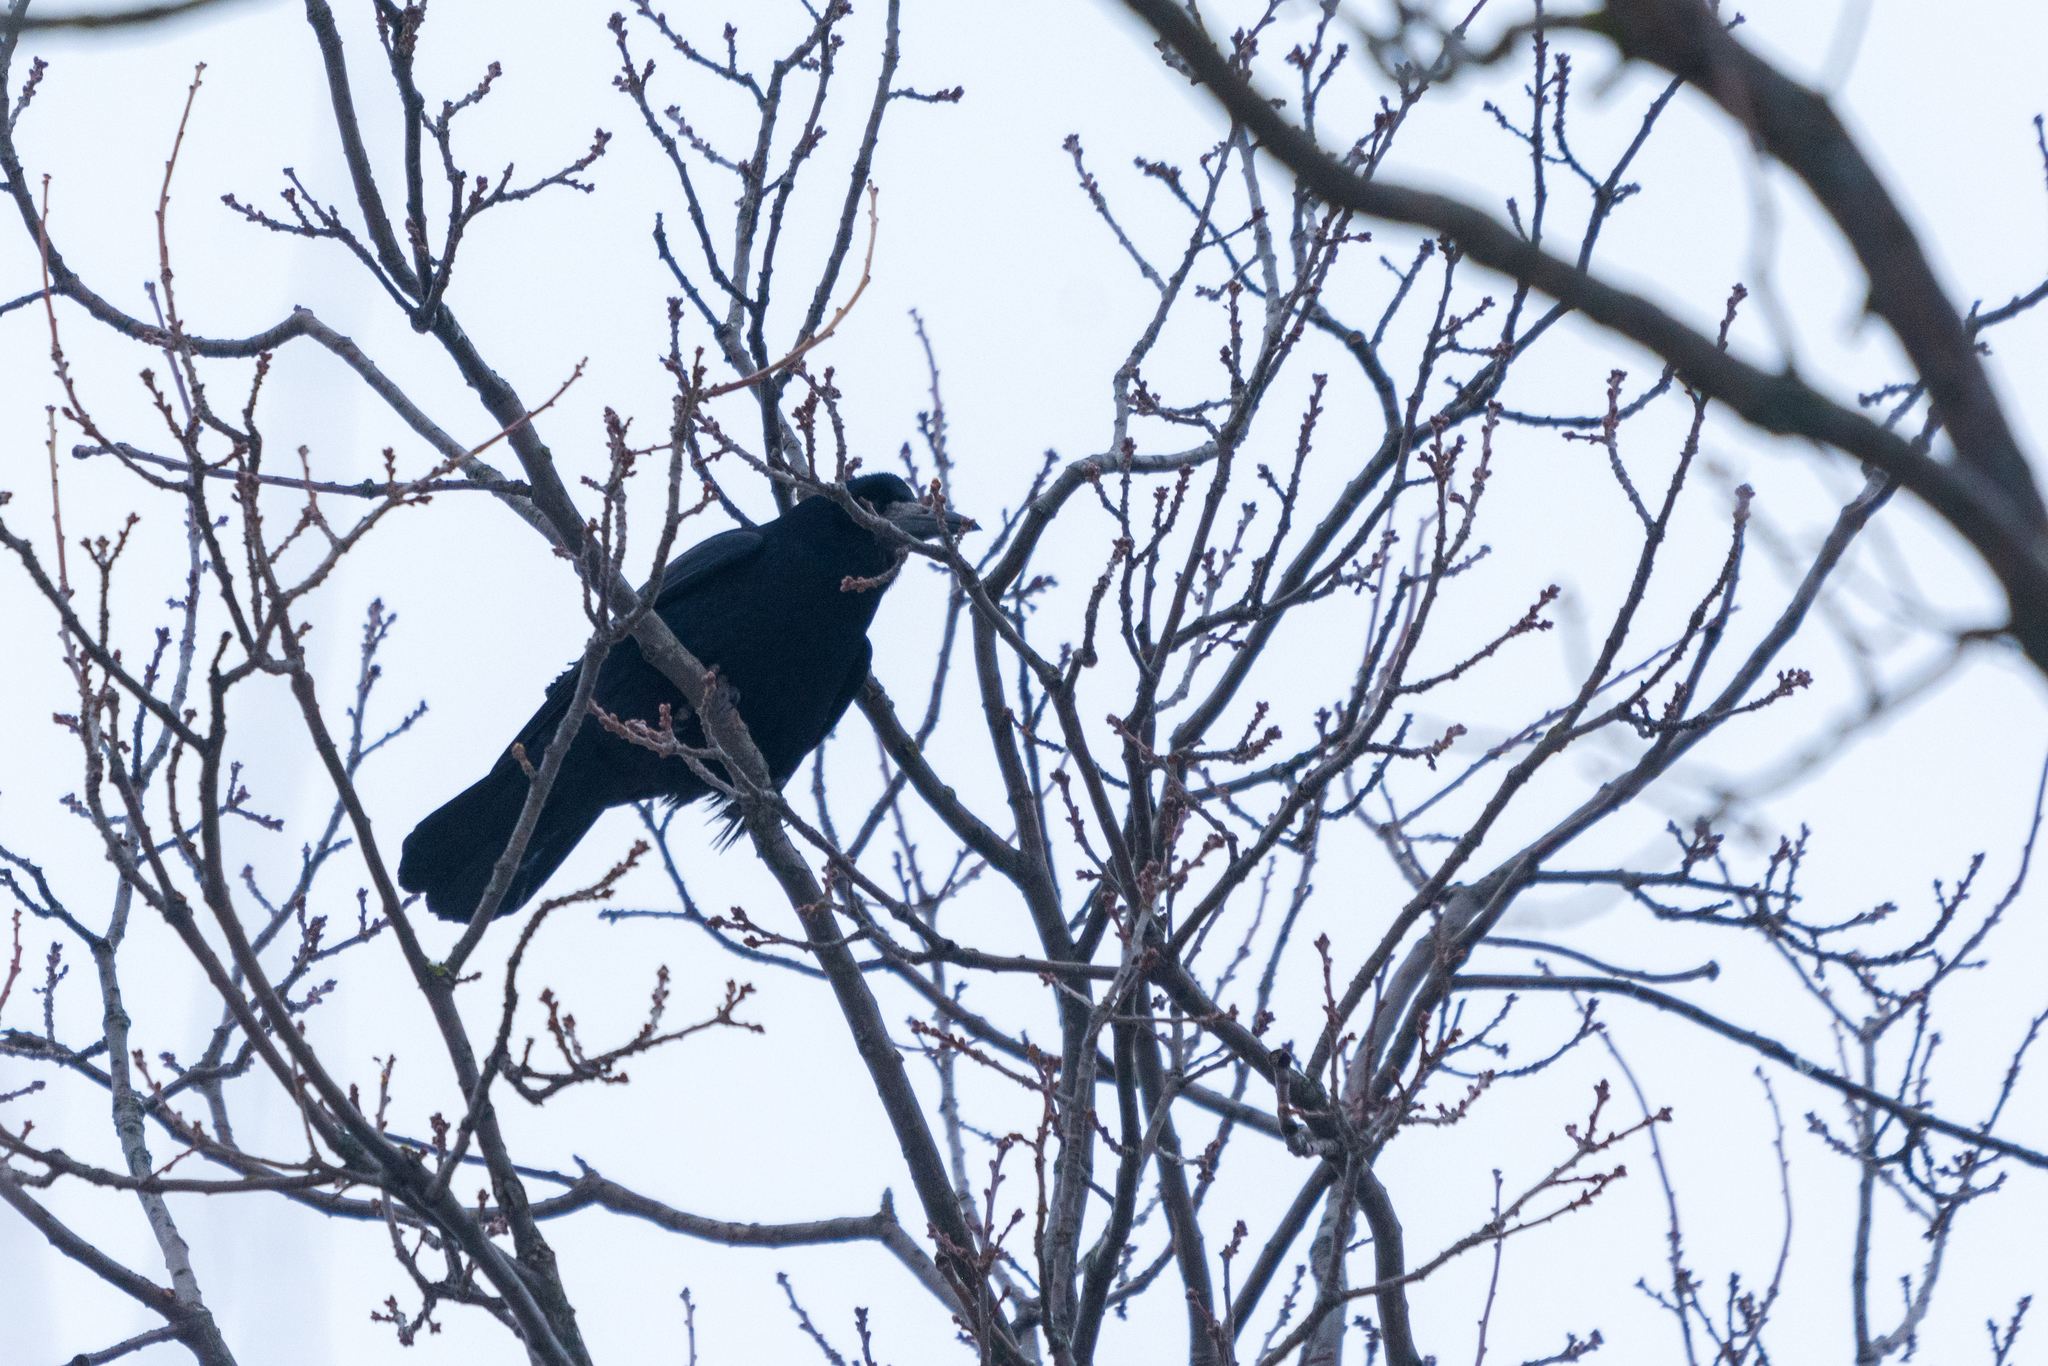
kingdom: Animalia
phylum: Chordata
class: Aves
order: Passeriformes
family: Corvidae
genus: Corvus
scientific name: Corvus frugilegus
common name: Rook
